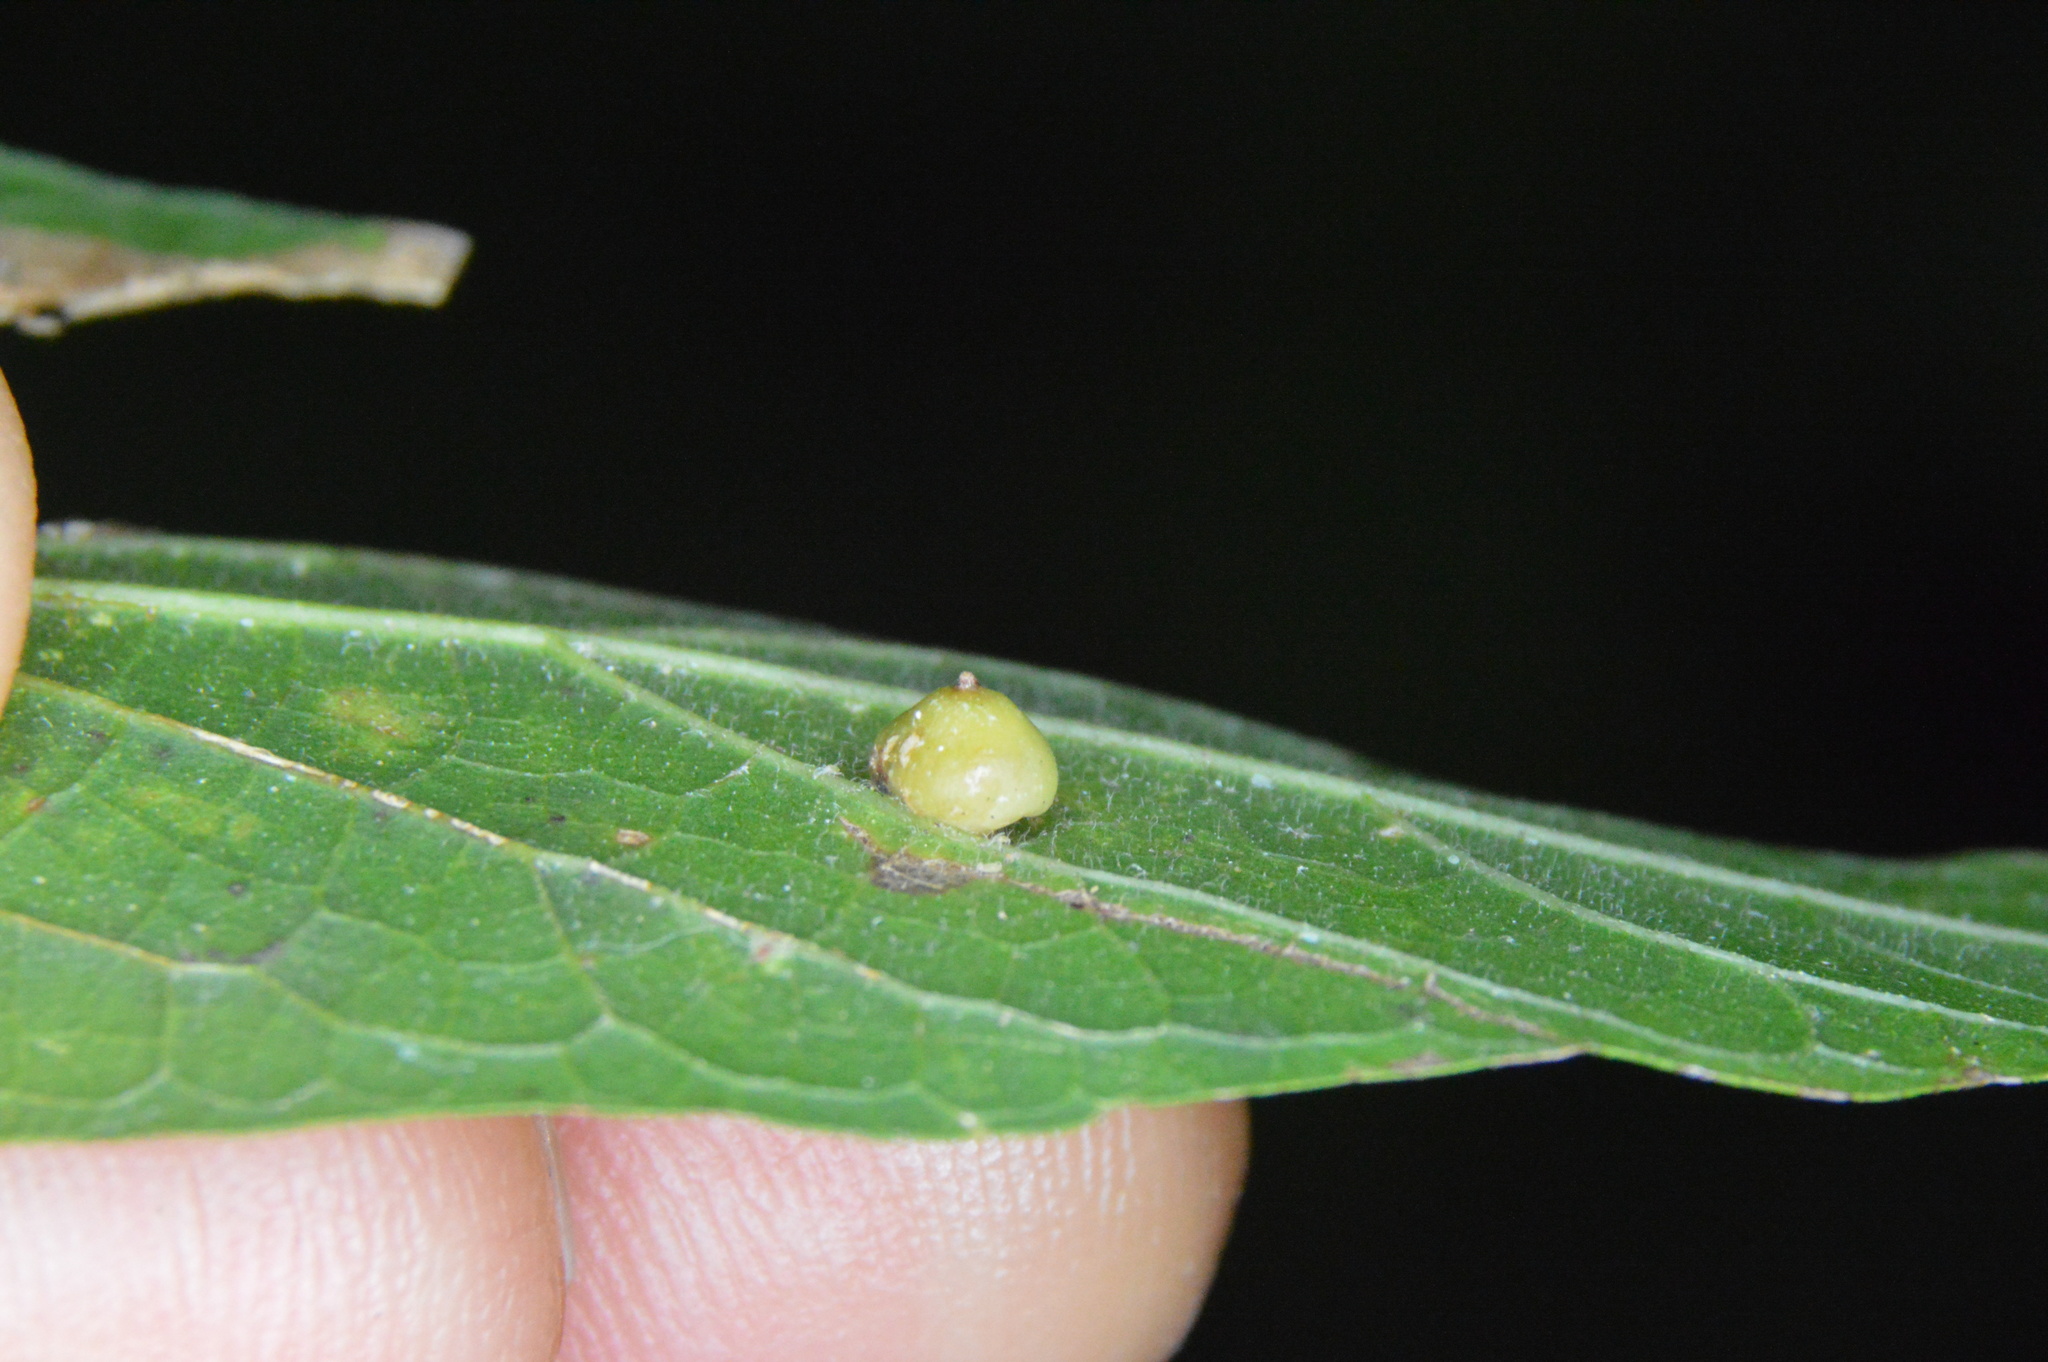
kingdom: Animalia
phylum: Arthropoda
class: Insecta
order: Diptera
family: Cecidomyiidae
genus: Celticecis
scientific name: Celticecis globosa
